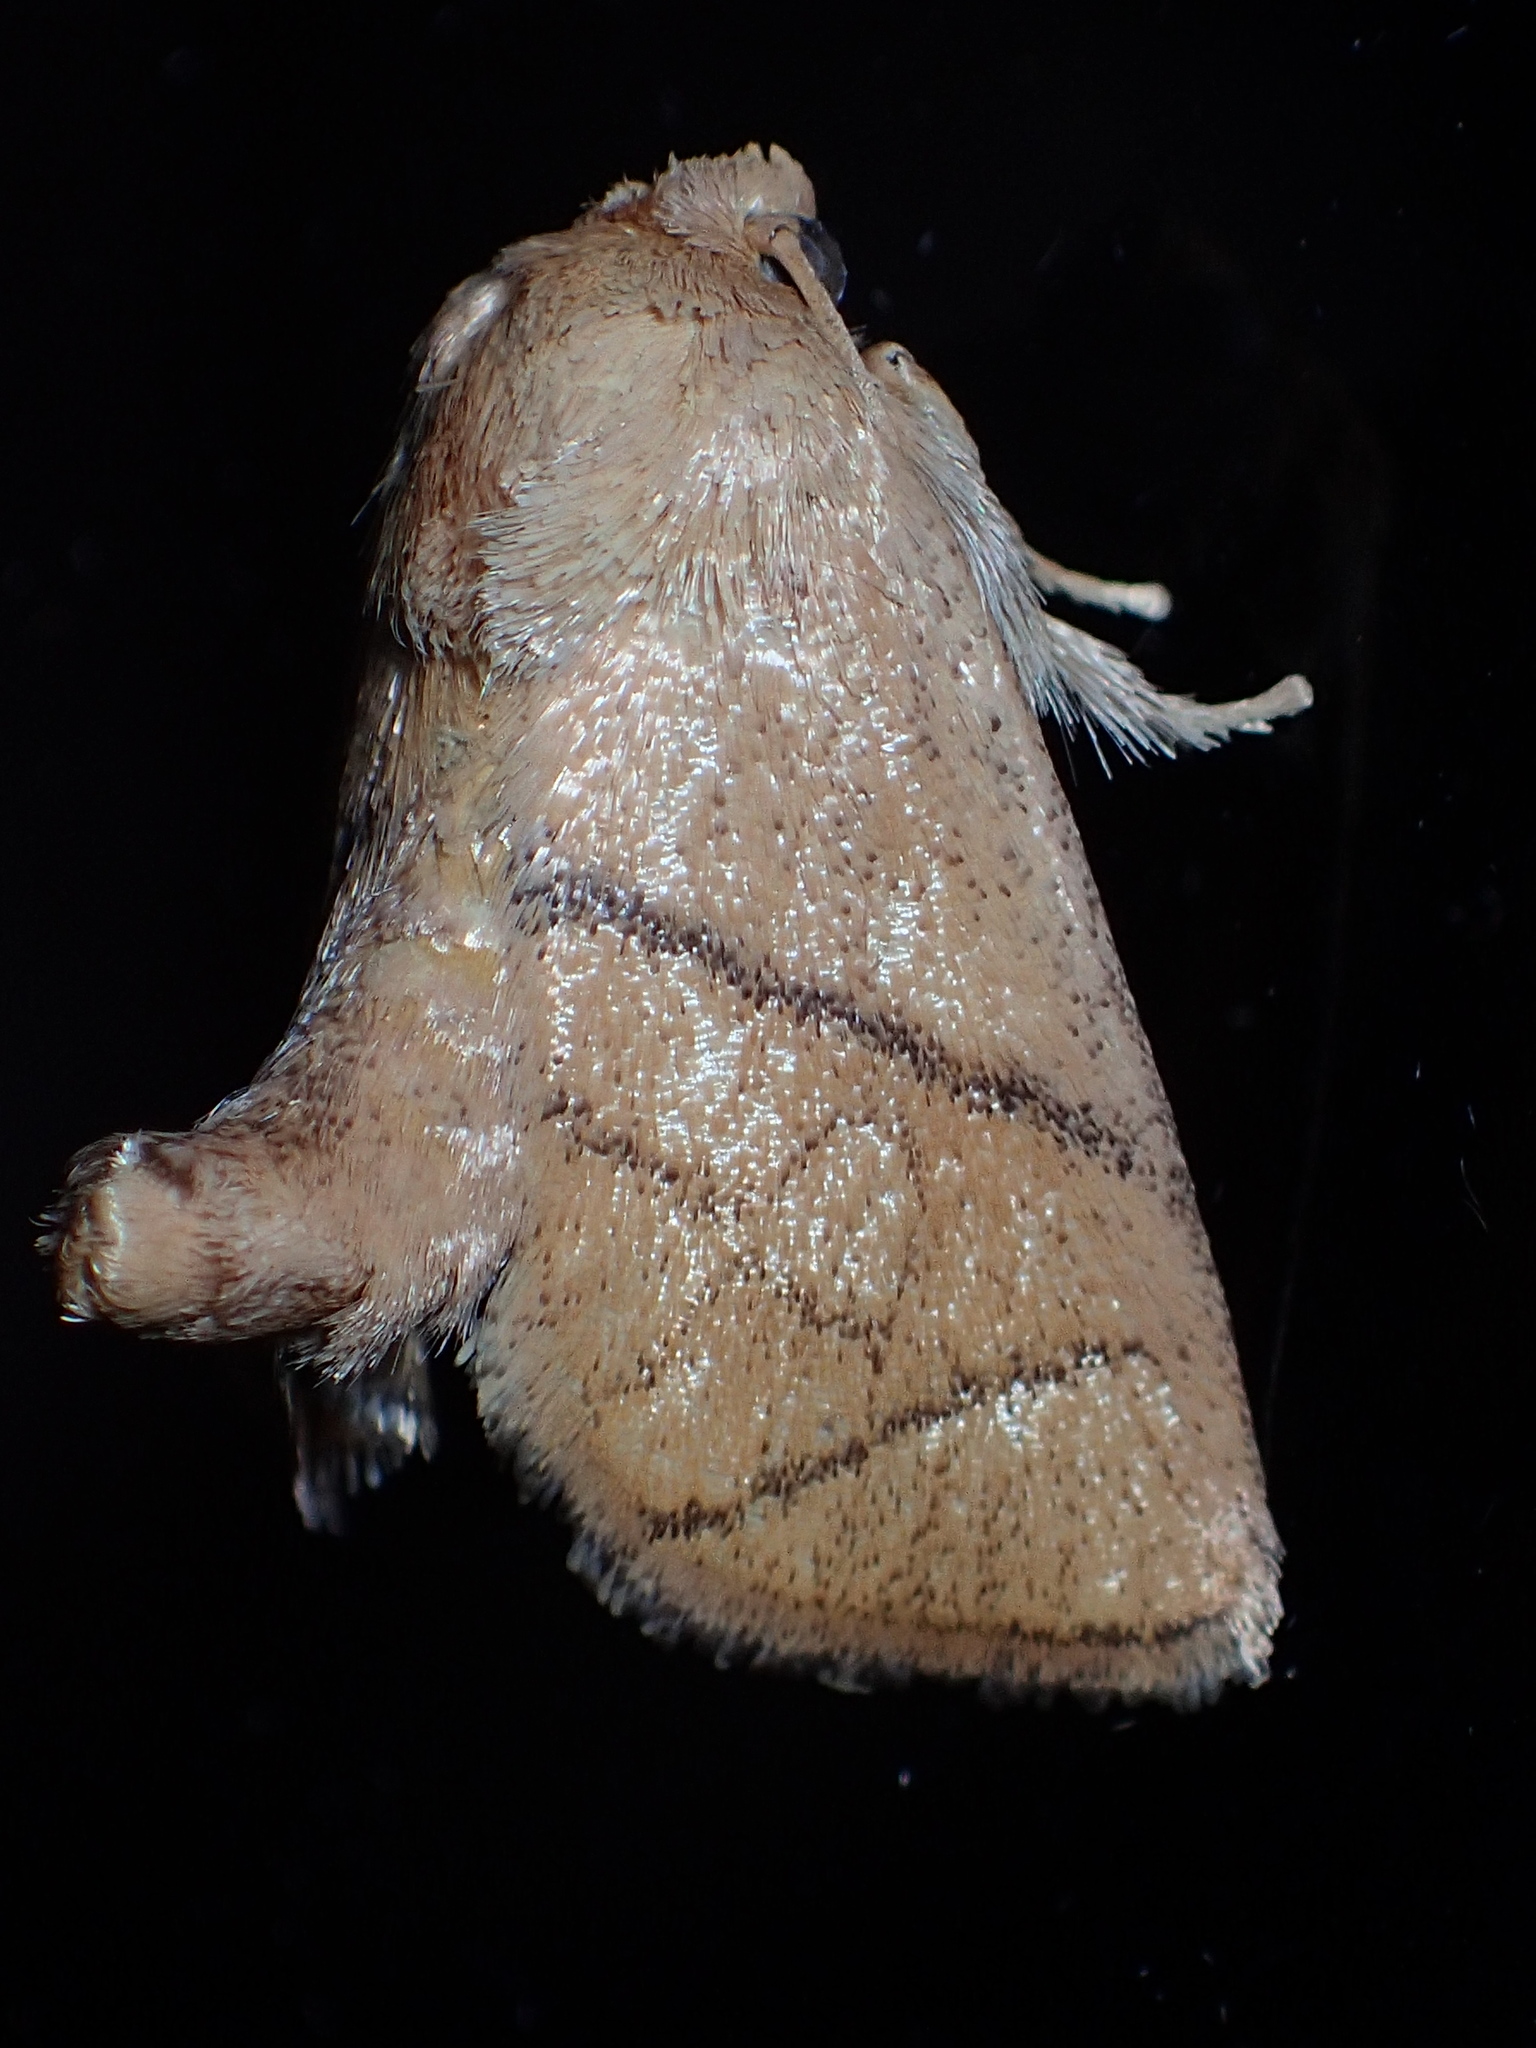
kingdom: Animalia
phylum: Arthropoda
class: Insecta
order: Lepidoptera
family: Limacodidae
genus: Apoda
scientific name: Apoda y-inversa
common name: Yellow-collared slug moth
